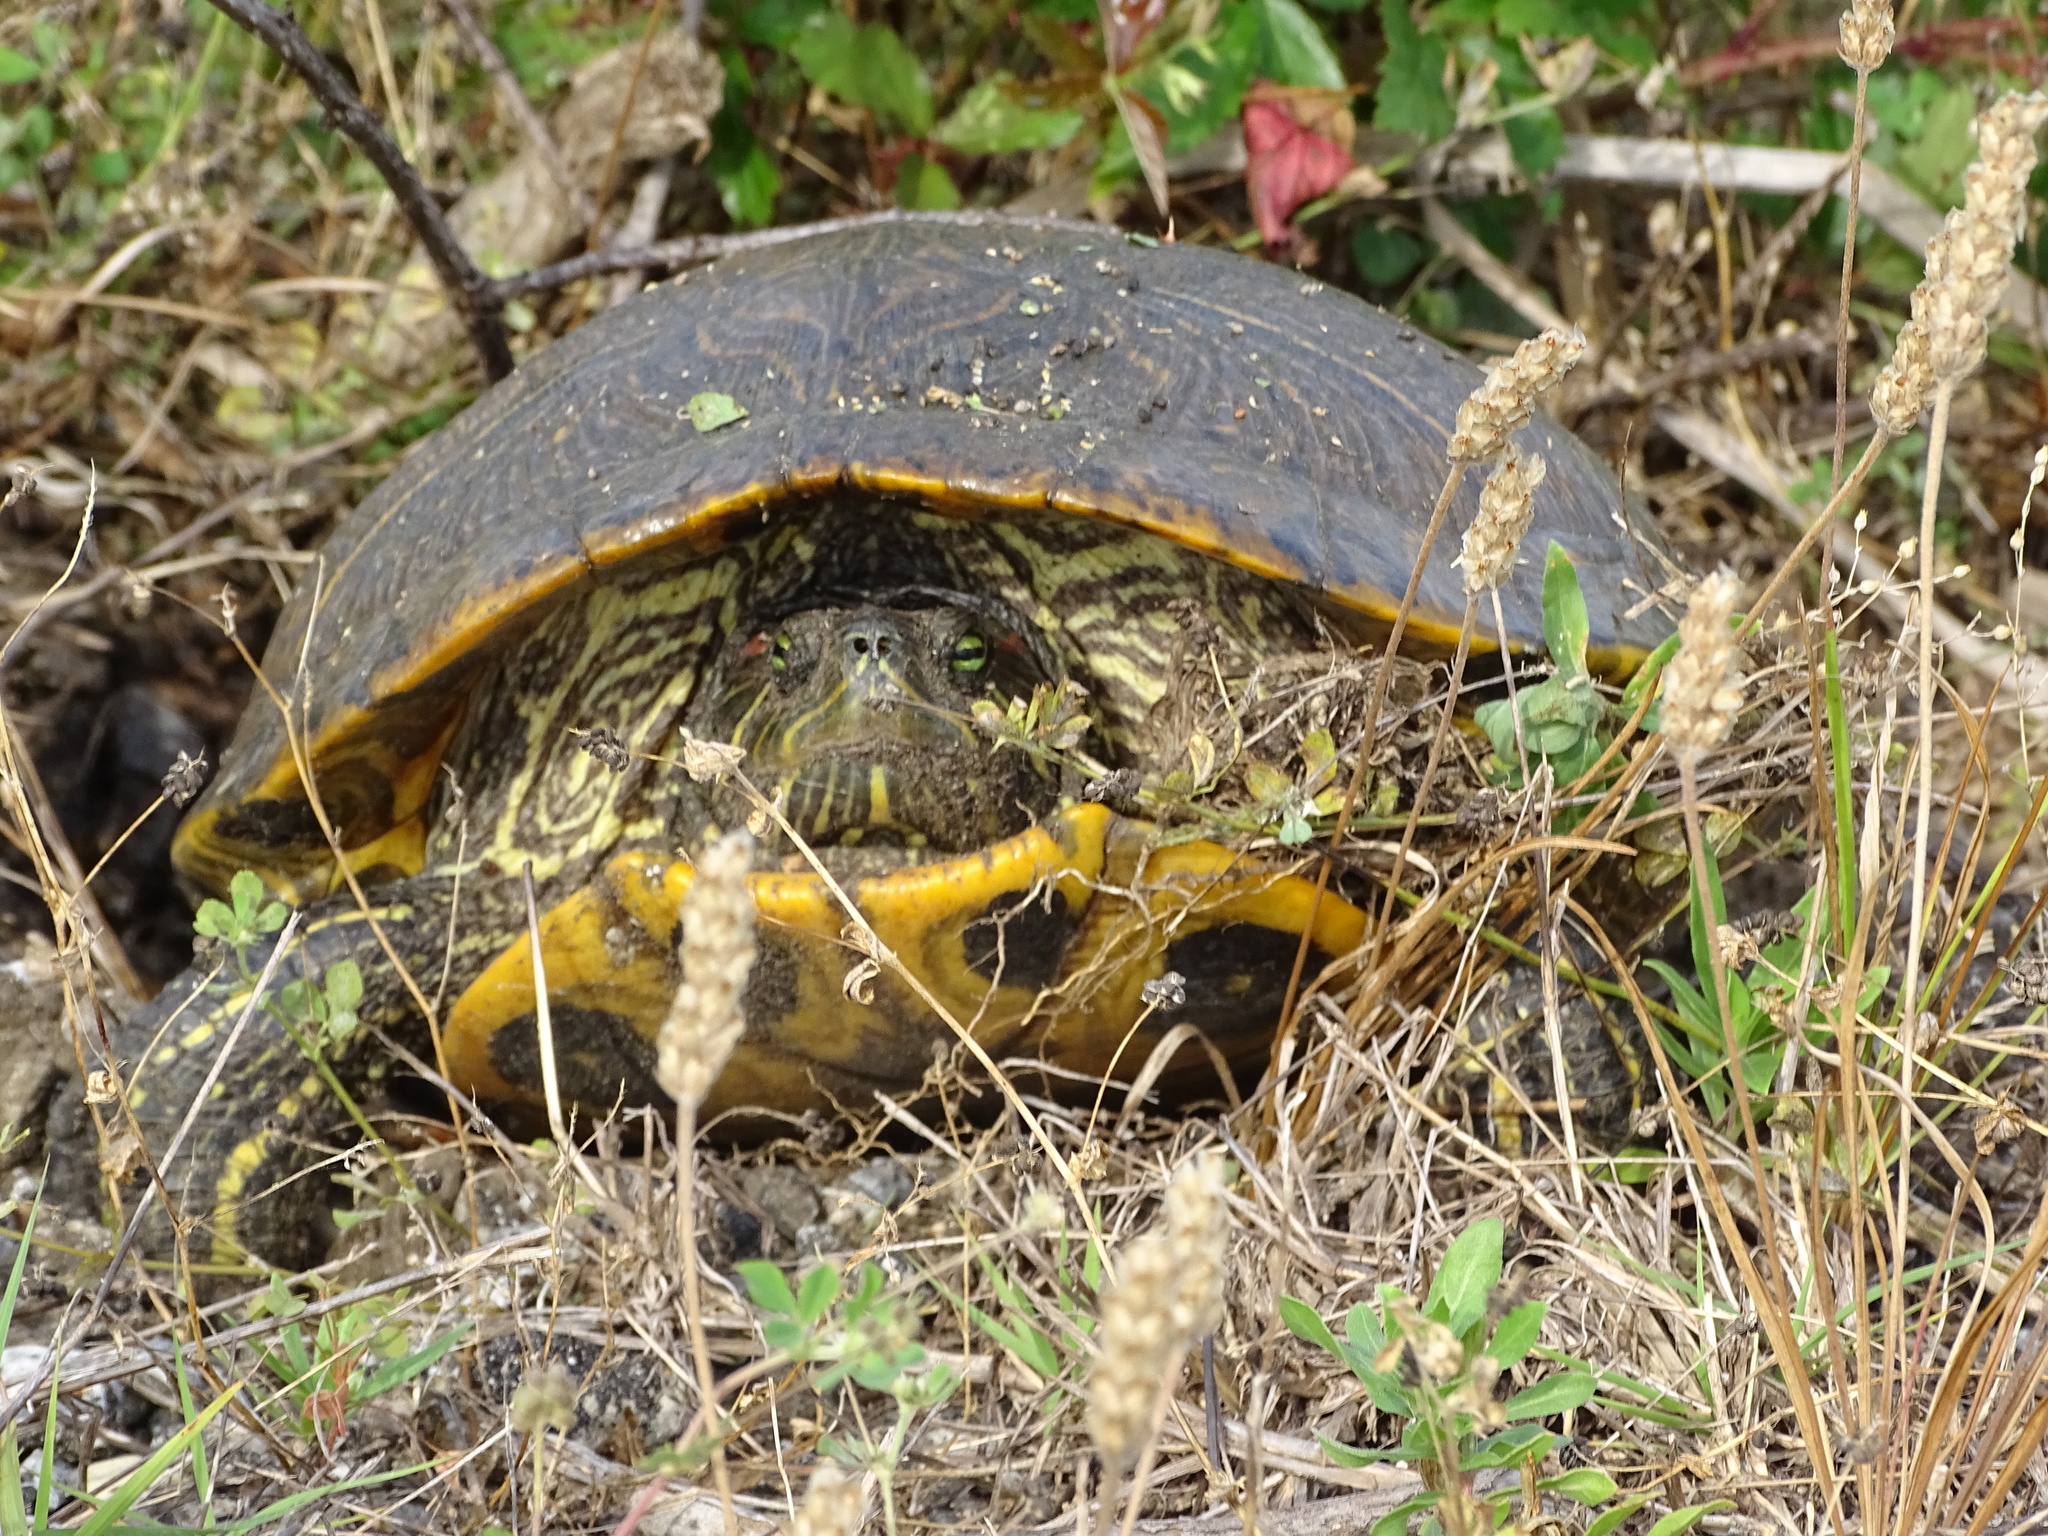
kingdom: Animalia
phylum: Chordata
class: Testudines
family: Emydidae
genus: Trachemys
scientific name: Trachemys scripta
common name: Slider
